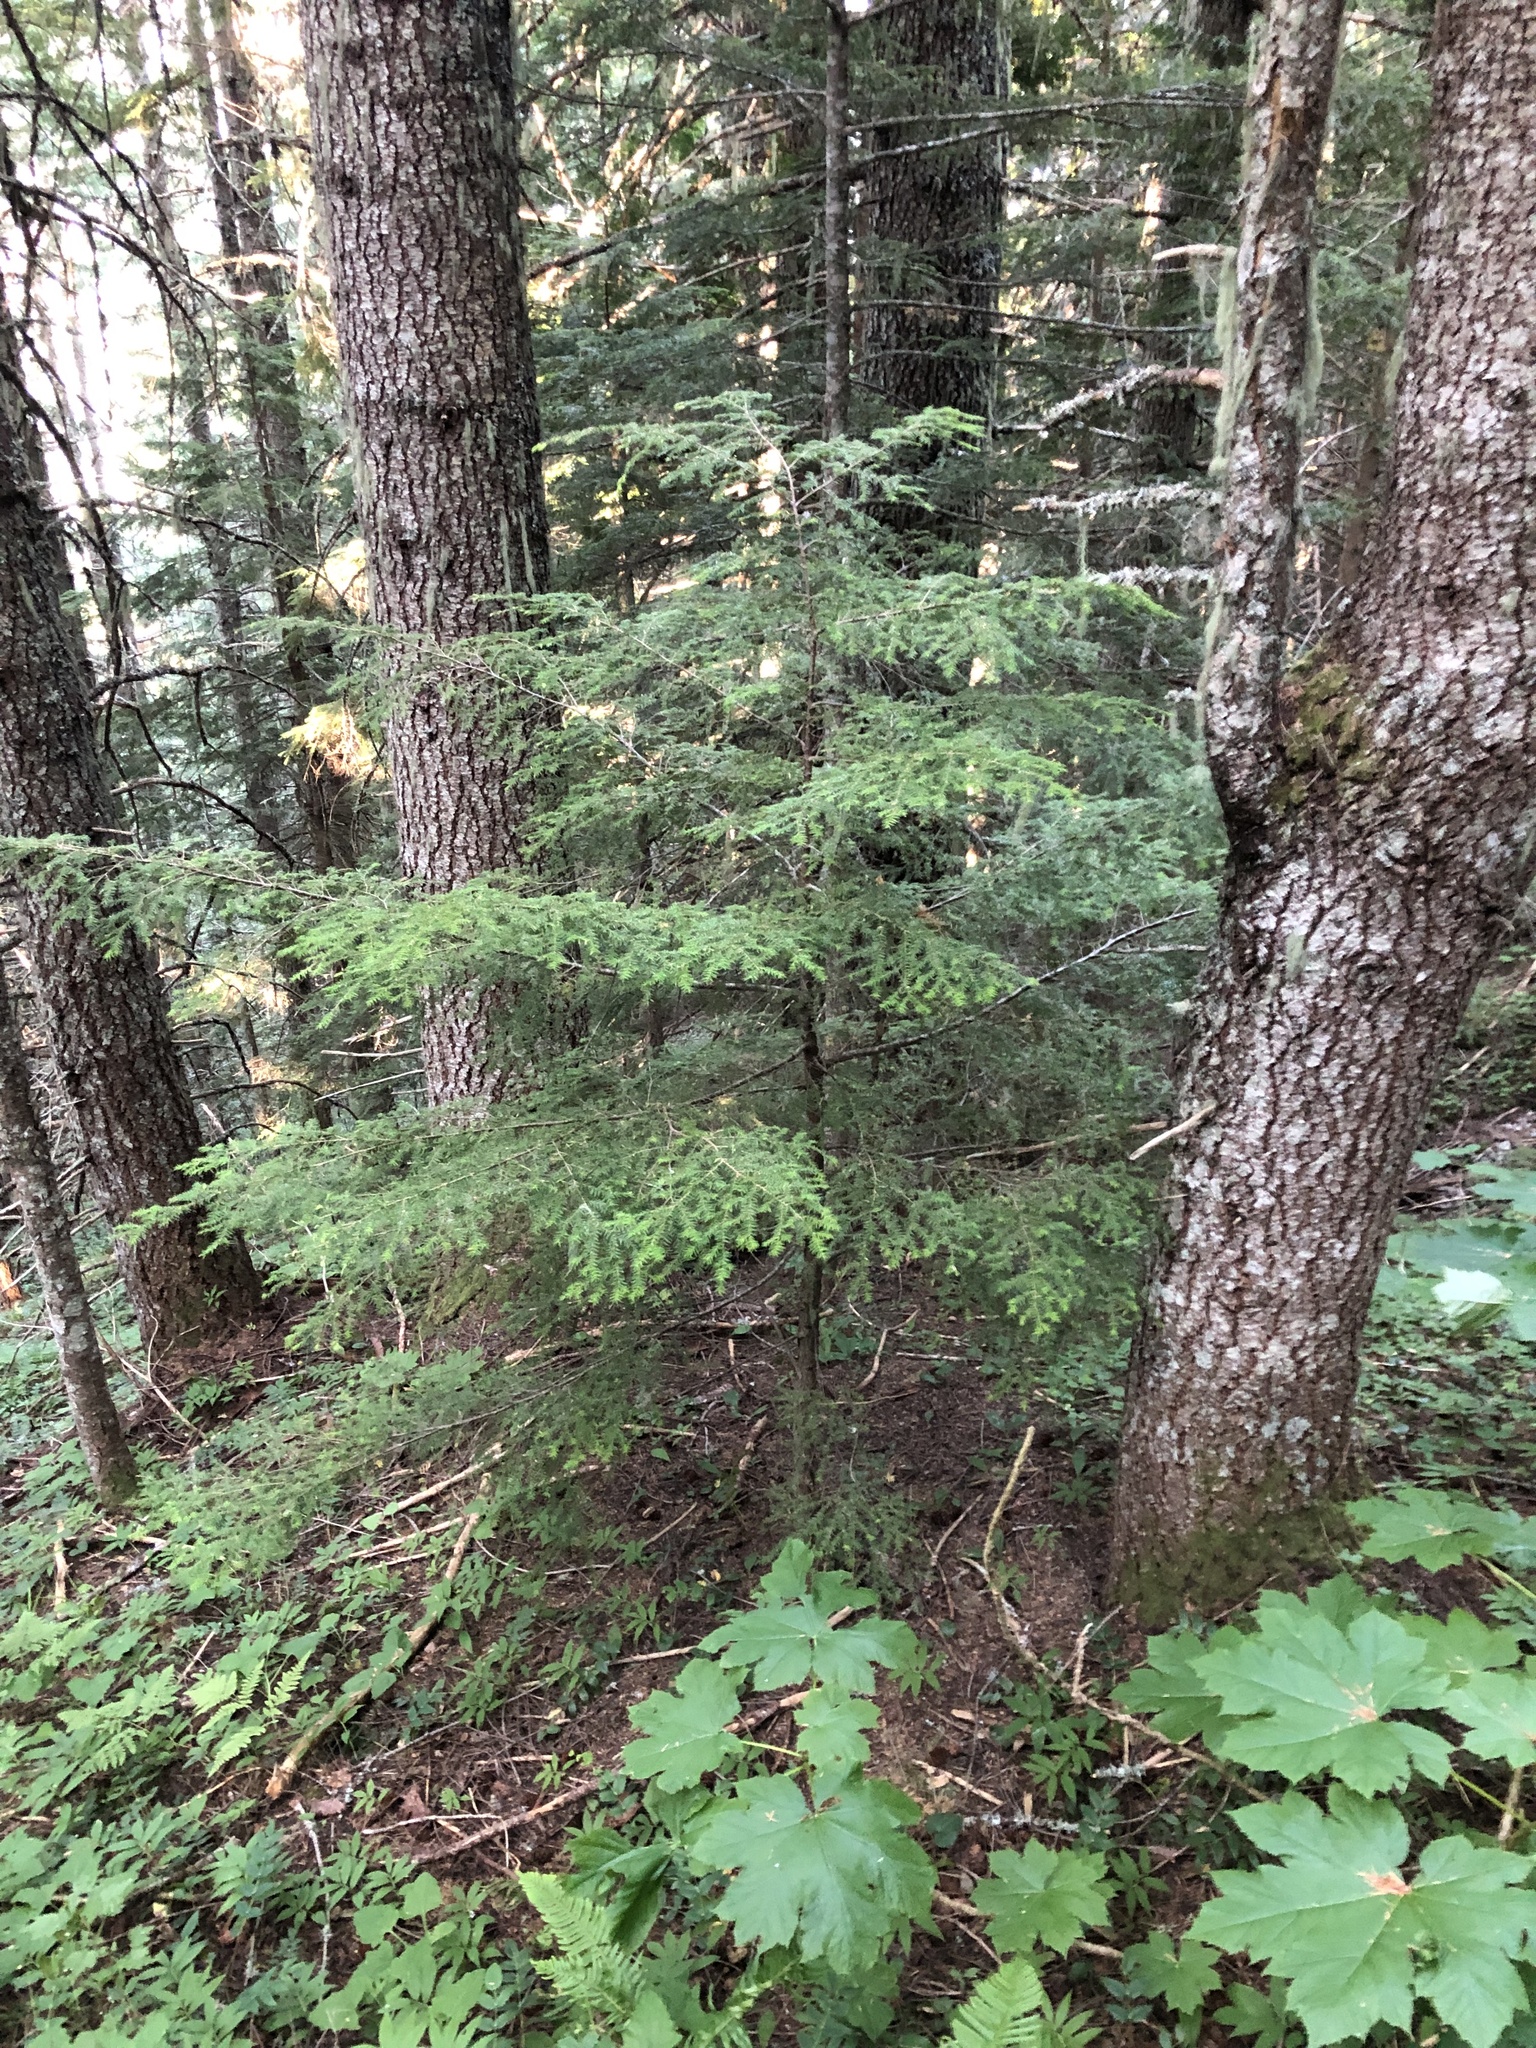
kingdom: Plantae
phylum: Tracheophyta
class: Pinopsida
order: Pinales
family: Pinaceae
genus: Tsuga
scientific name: Tsuga heterophylla
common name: Western hemlock
